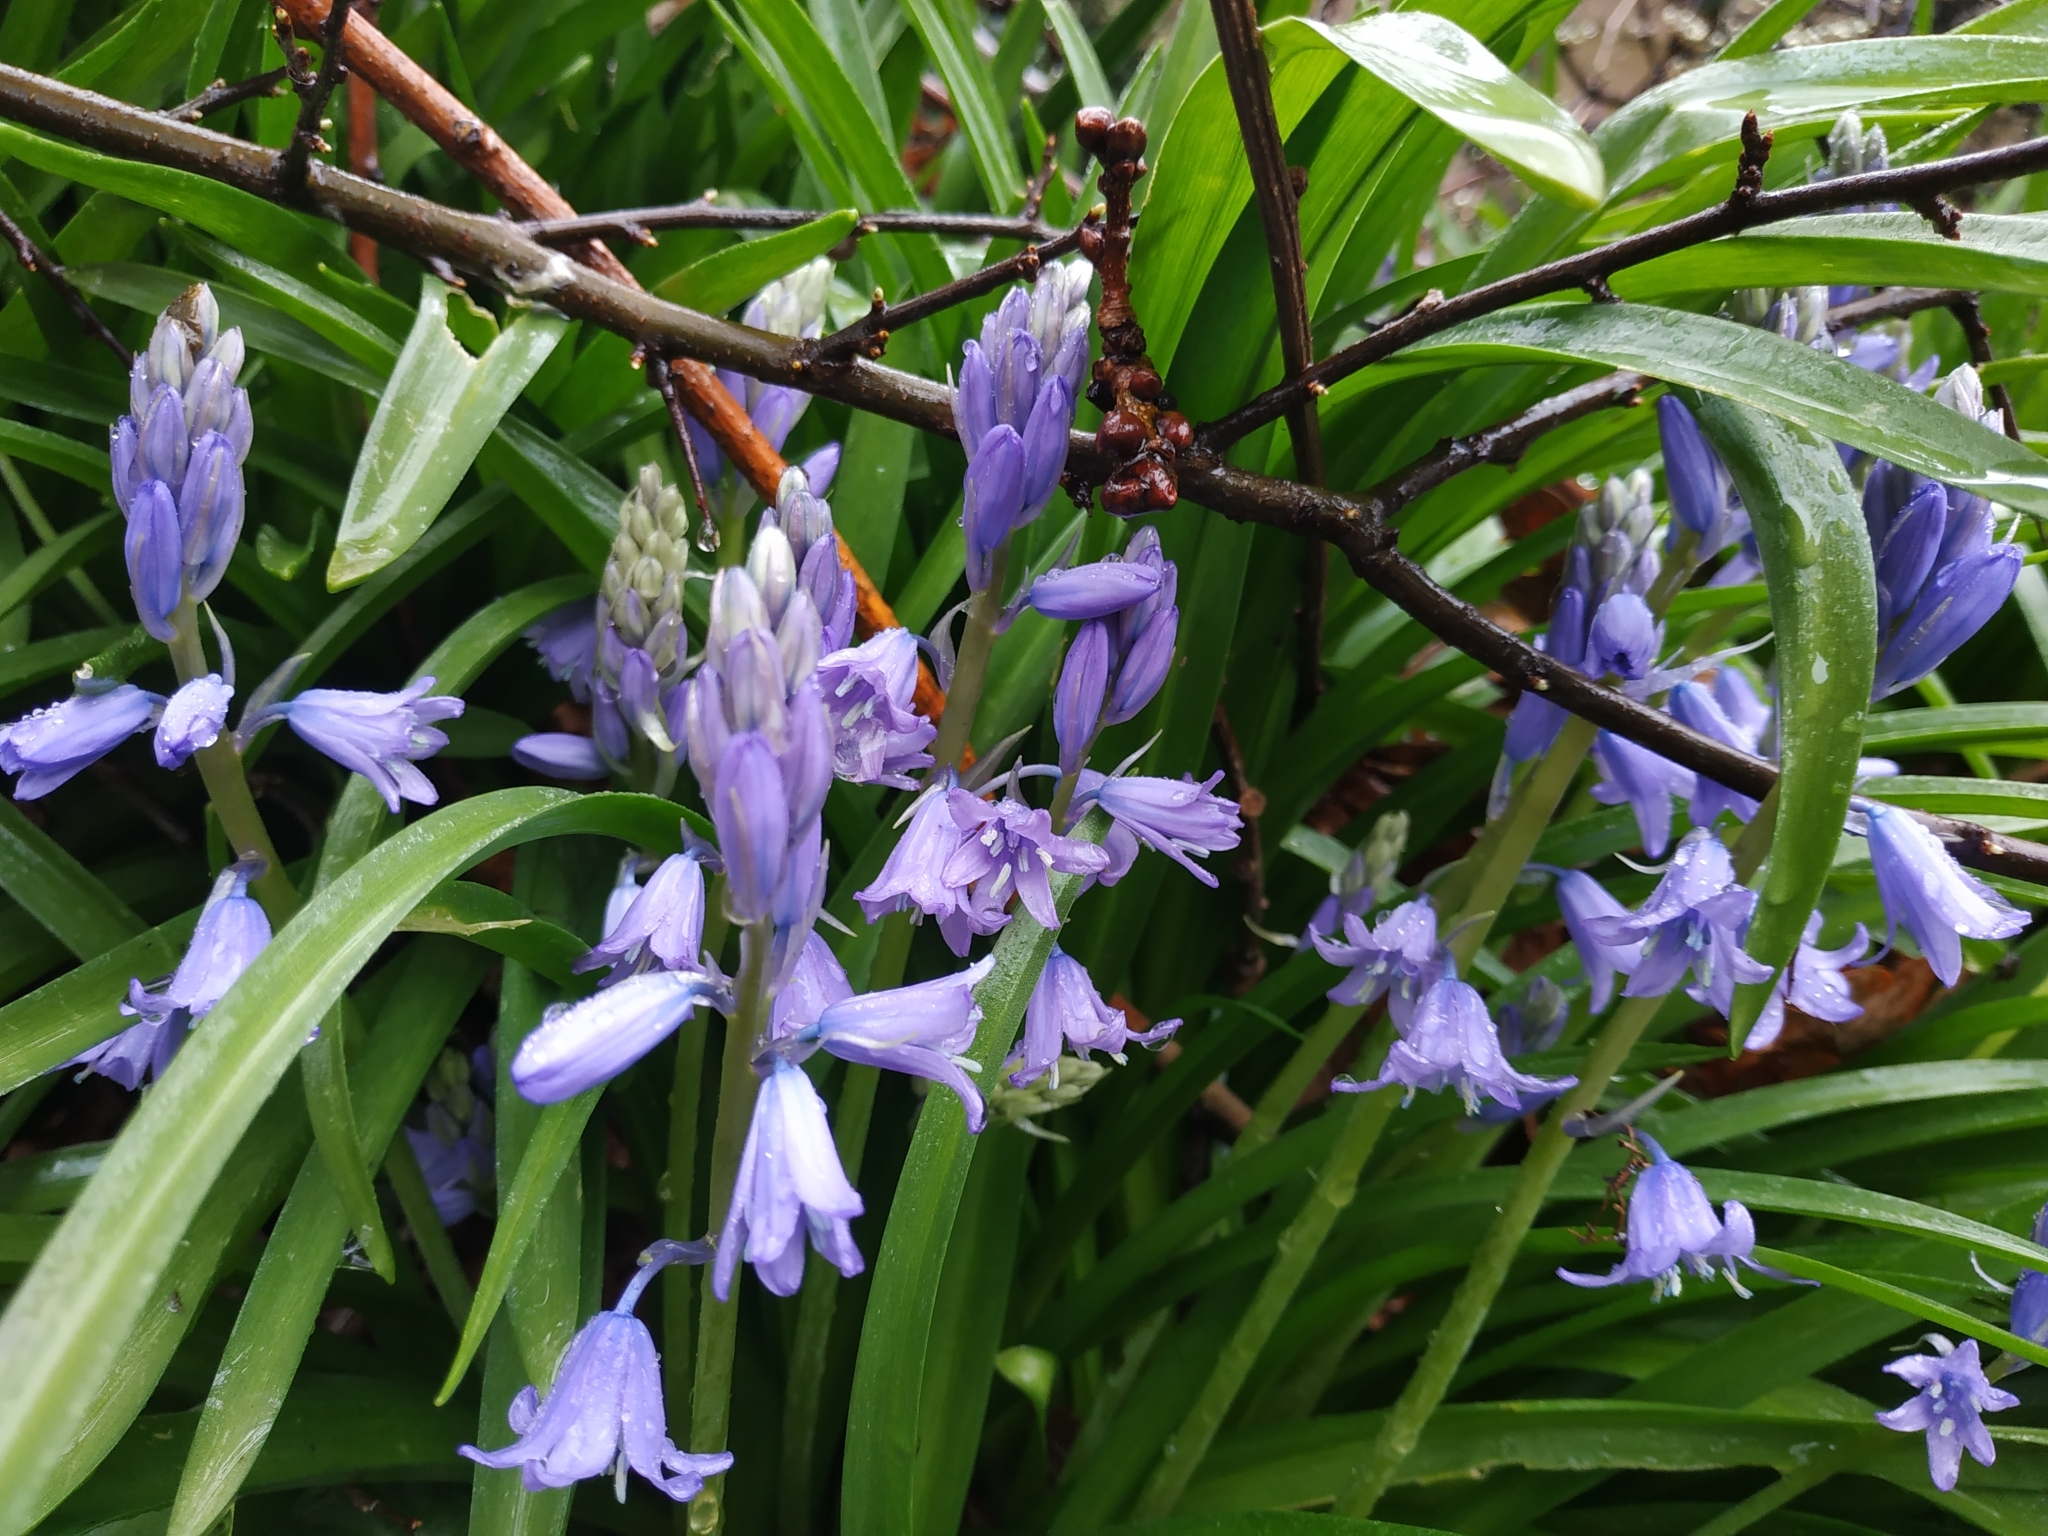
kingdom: Plantae
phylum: Tracheophyta
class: Liliopsida
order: Asparagales
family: Asparagaceae
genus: Hyacinthoides
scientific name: Hyacinthoides massartiana
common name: Hyacinthoides
